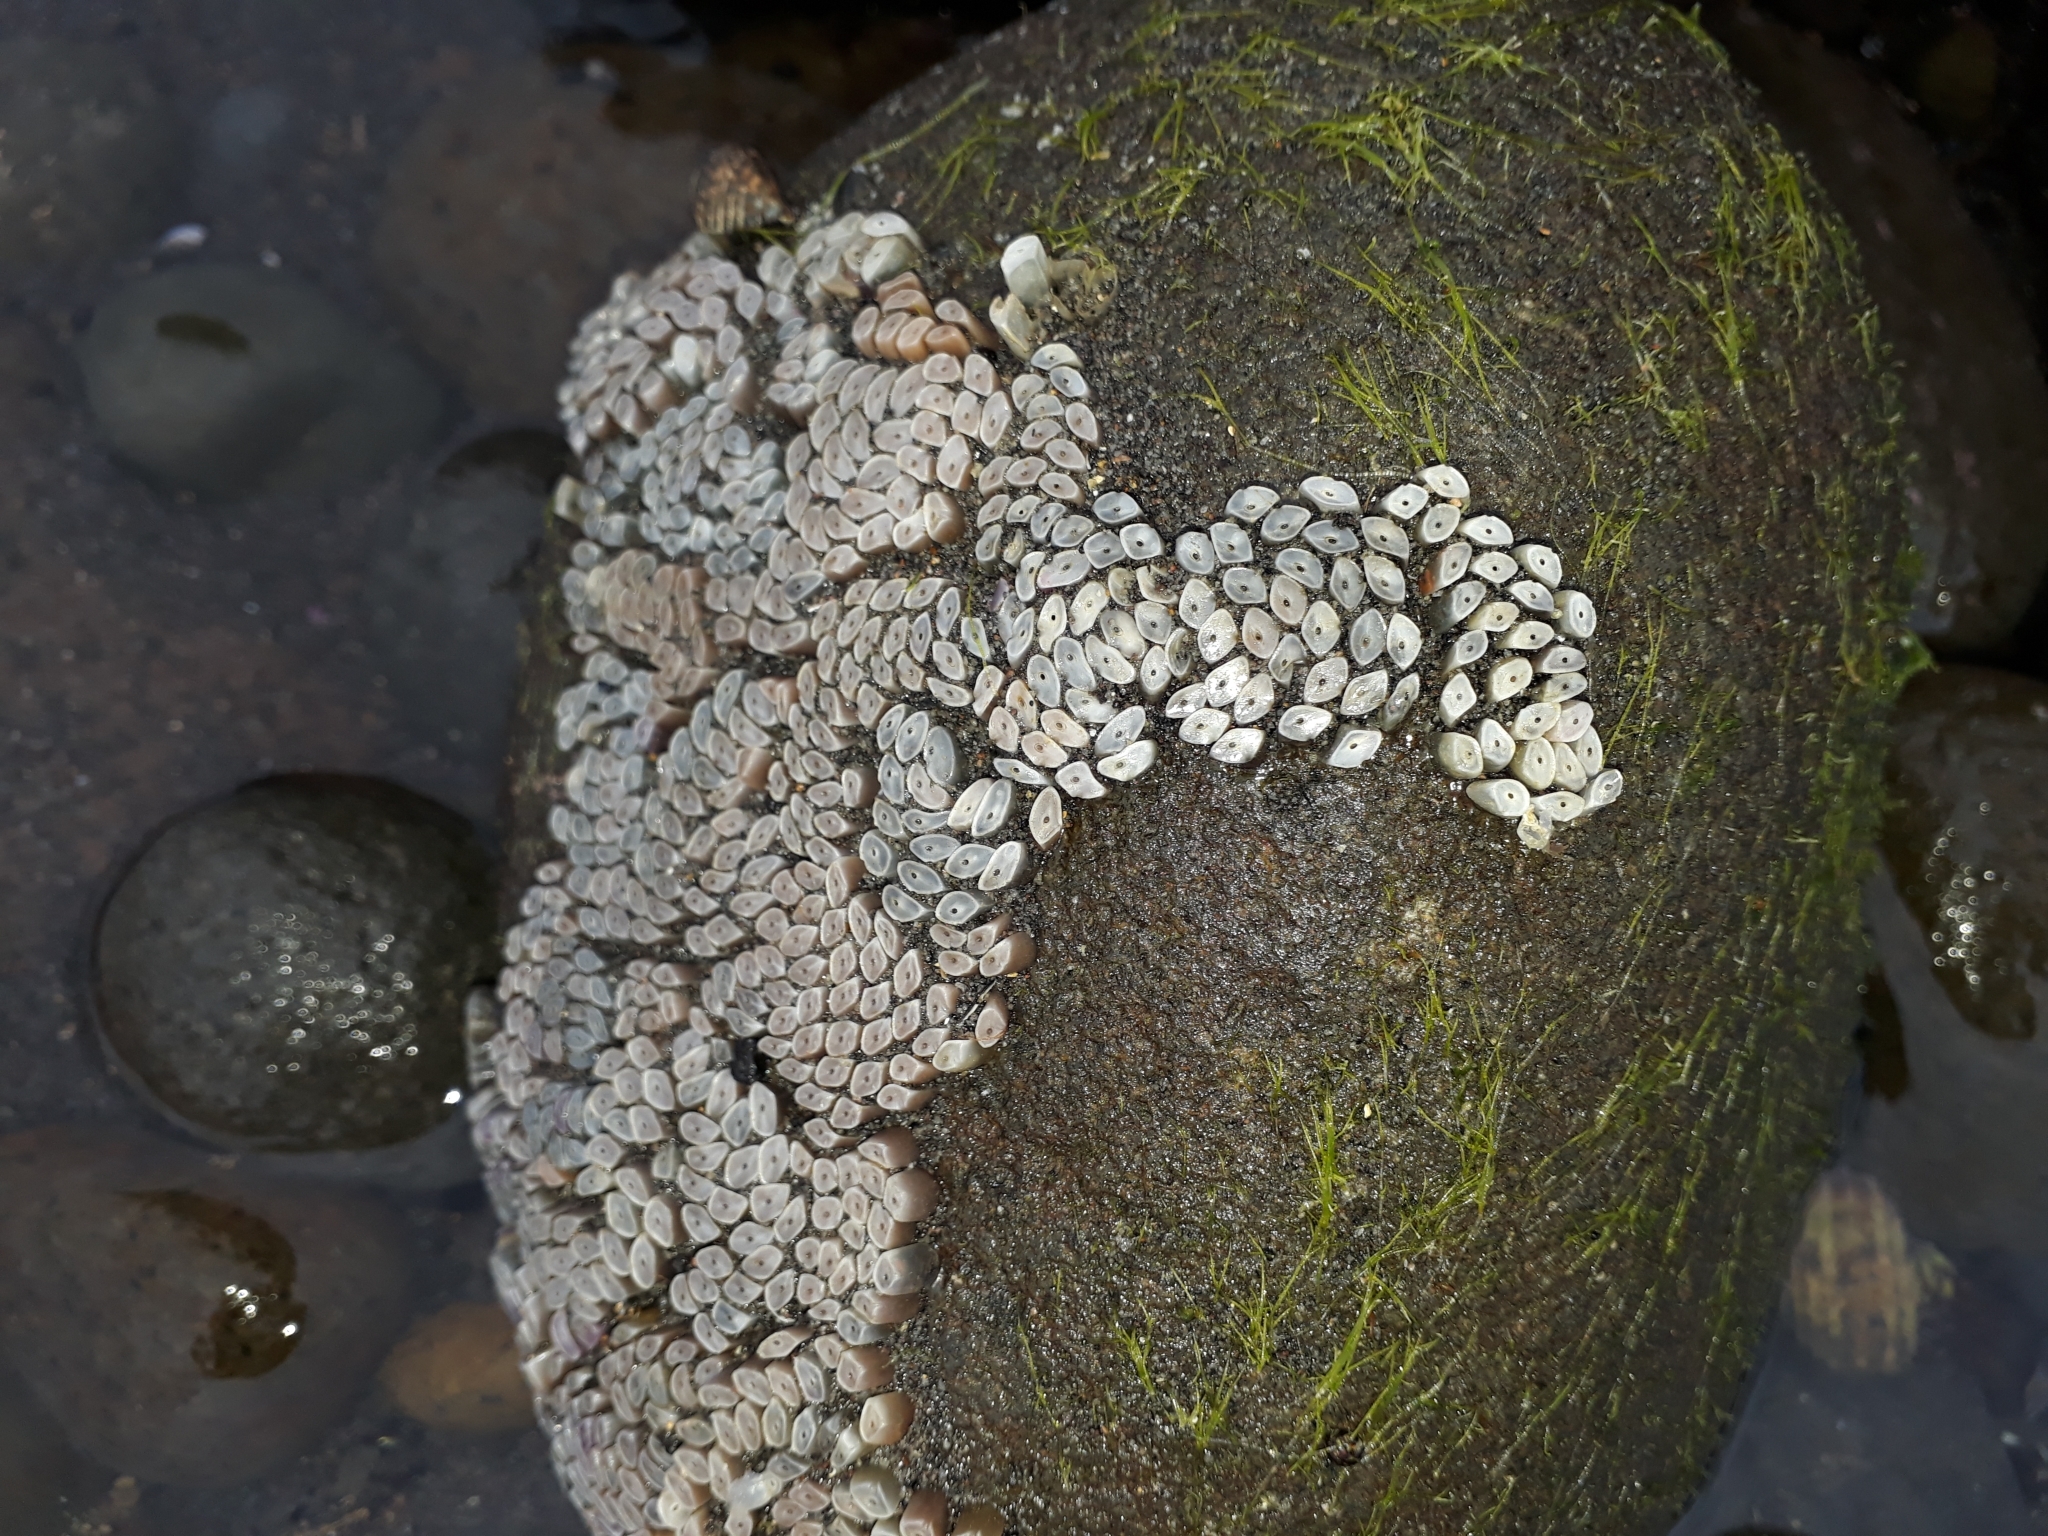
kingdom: Animalia
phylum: Mollusca
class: Gastropoda
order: Neogastropoda
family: Muricidae
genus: Dicathais
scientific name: Dicathais orbita
